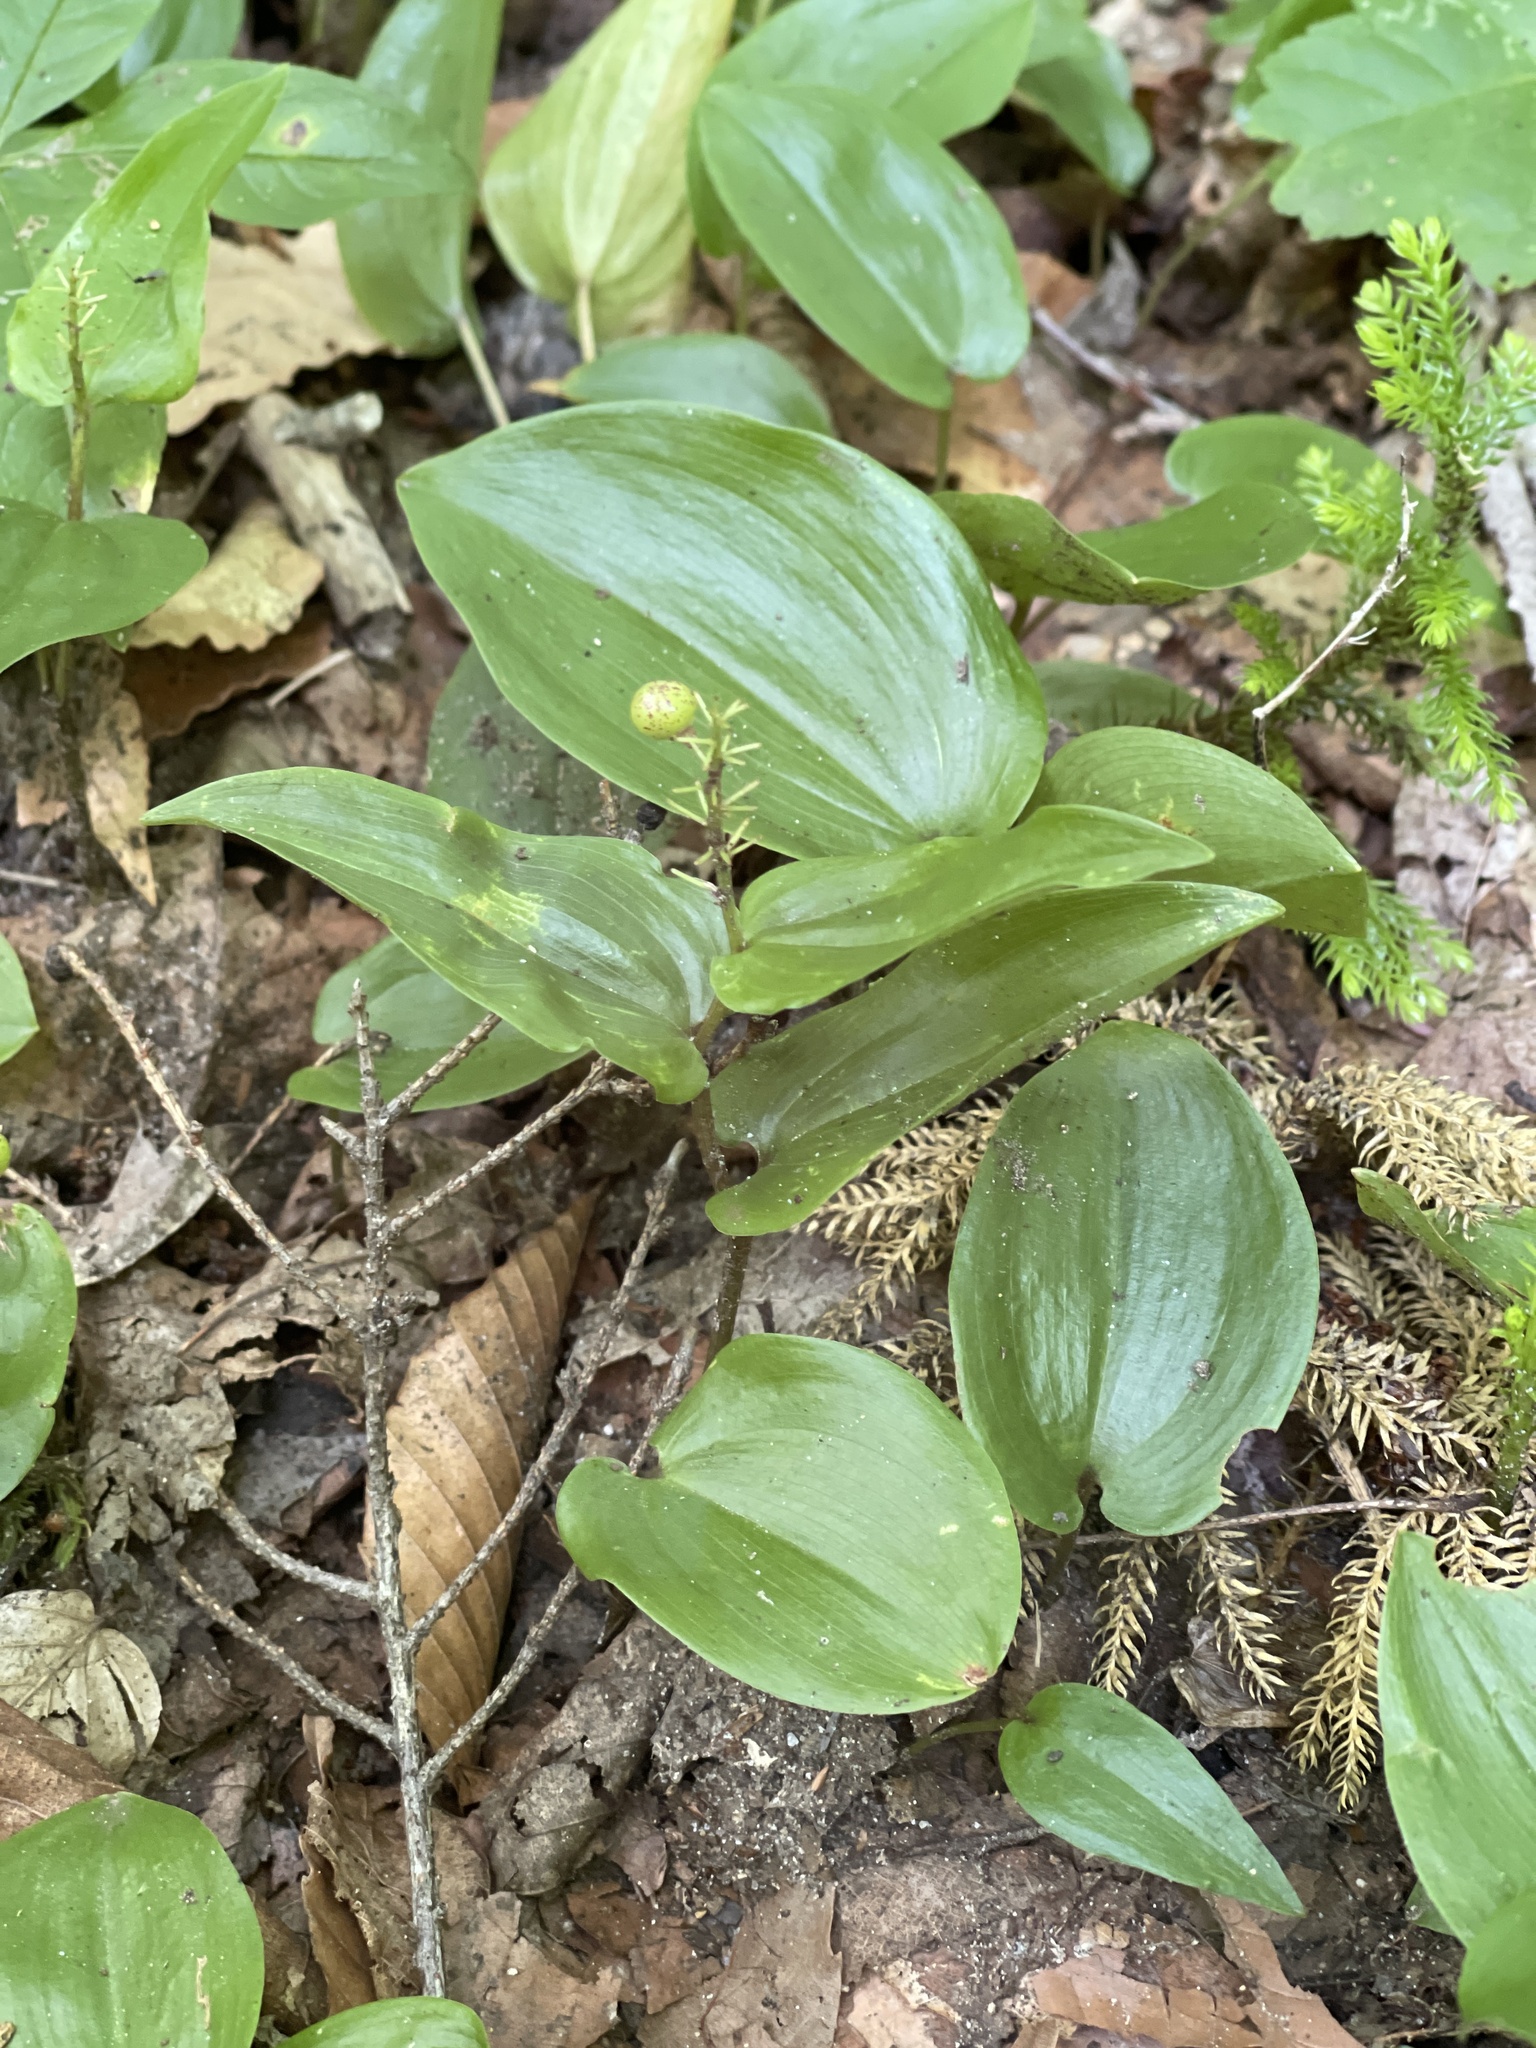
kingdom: Plantae
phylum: Tracheophyta
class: Liliopsida
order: Asparagales
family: Asparagaceae
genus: Maianthemum
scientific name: Maianthemum canadense
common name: False lily-of-the-valley
